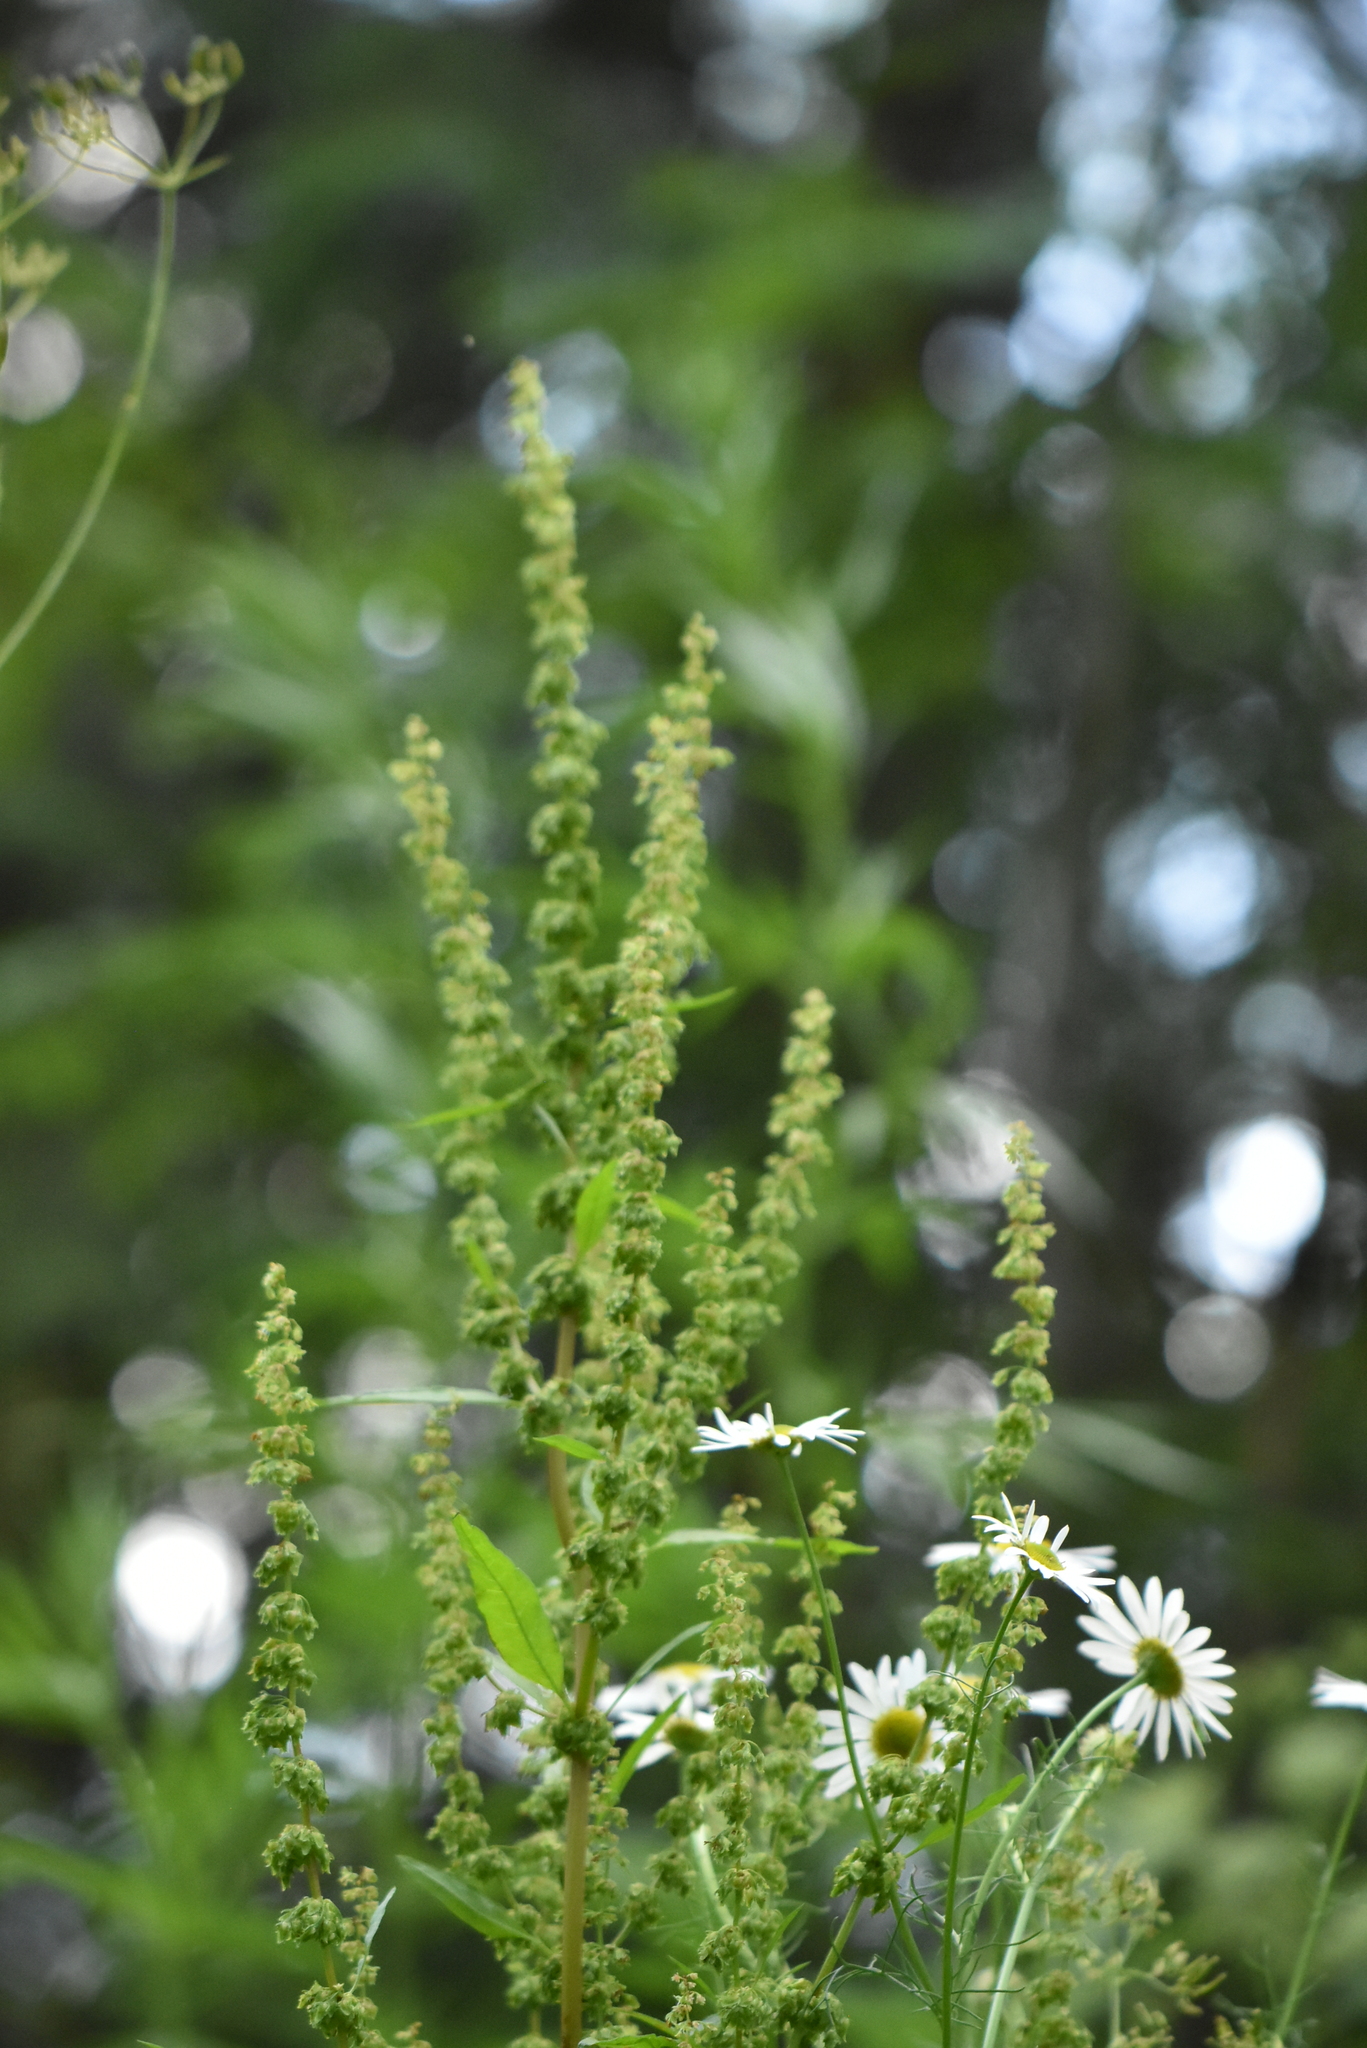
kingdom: Plantae
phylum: Tracheophyta
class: Magnoliopsida
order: Caryophyllales
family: Polygonaceae
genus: Rumex
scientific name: Rumex obtusifolius
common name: Bitter dock
